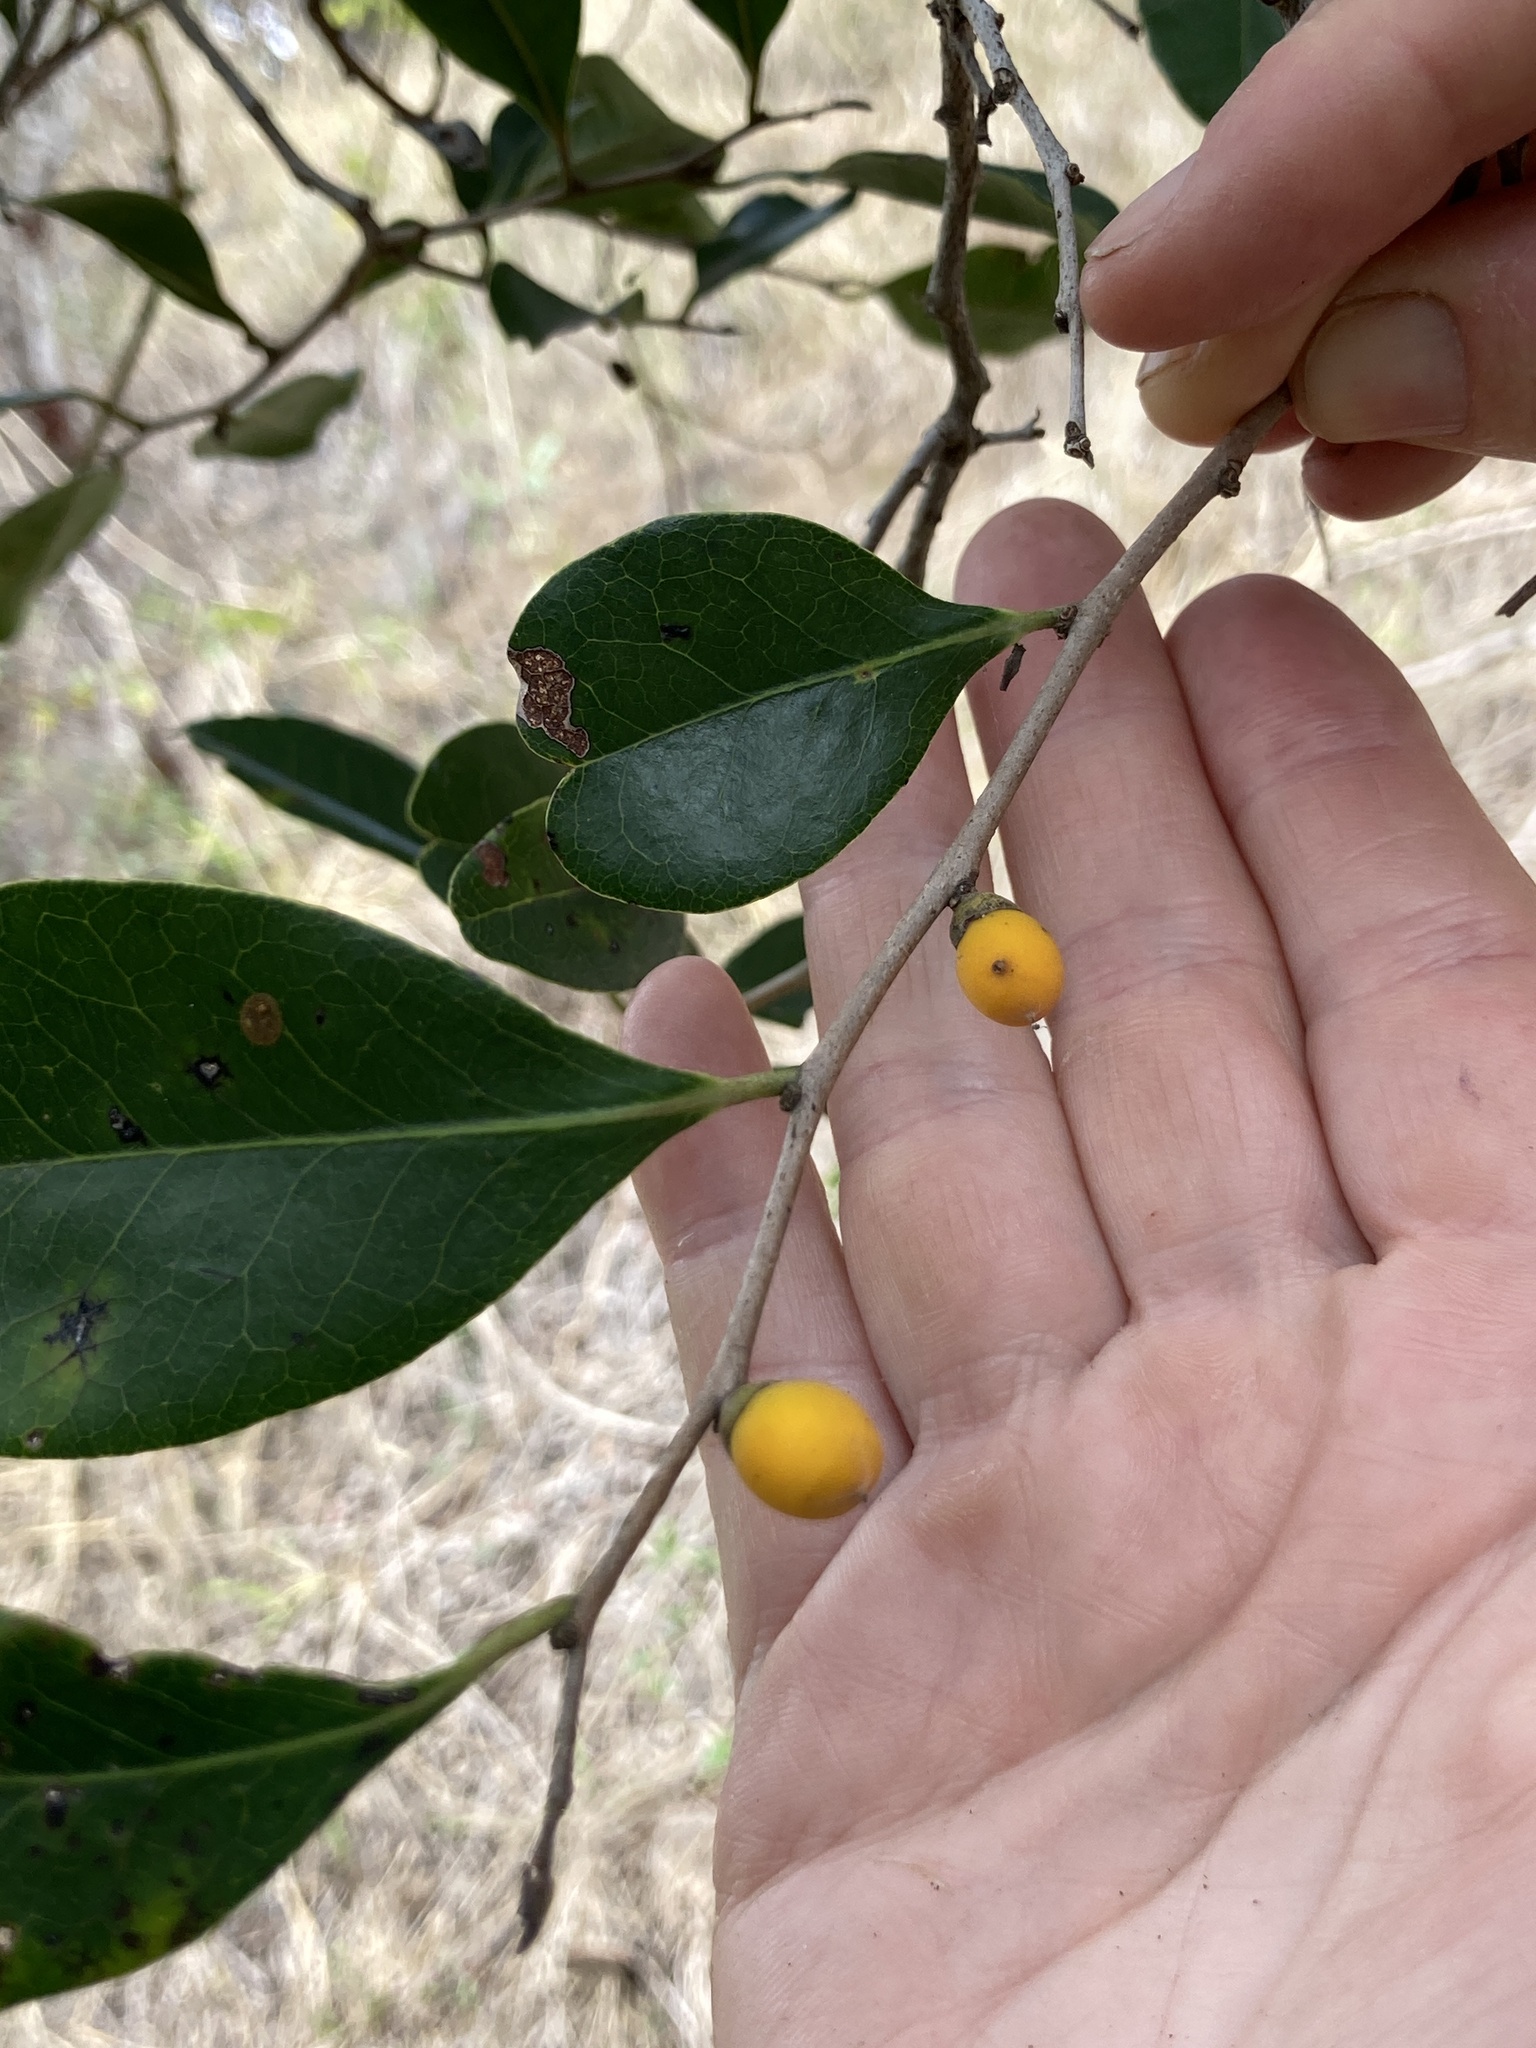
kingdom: Plantae
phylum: Tracheophyta
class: Magnoliopsida
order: Ericales
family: Ebenaceae
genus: Diospyros
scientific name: Diospyros geminata
